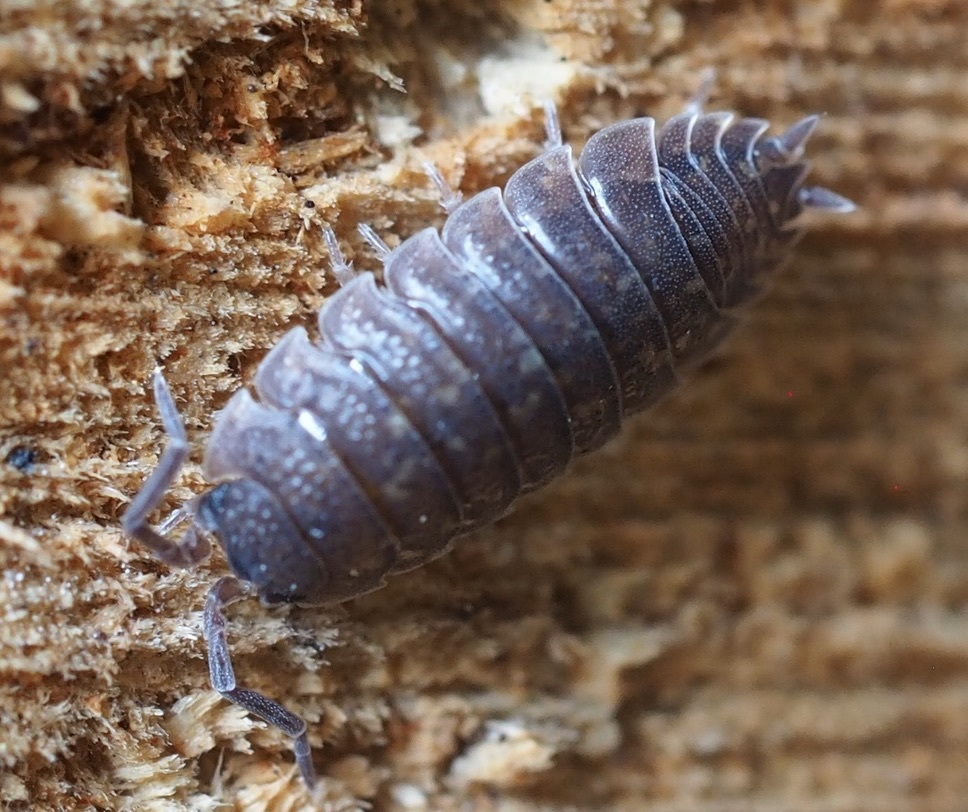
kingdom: Animalia
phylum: Arthropoda
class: Malacostraca
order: Isopoda
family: Porcellionidae
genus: Porcellio
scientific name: Porcellio scaber
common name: Common rough woodlouse
